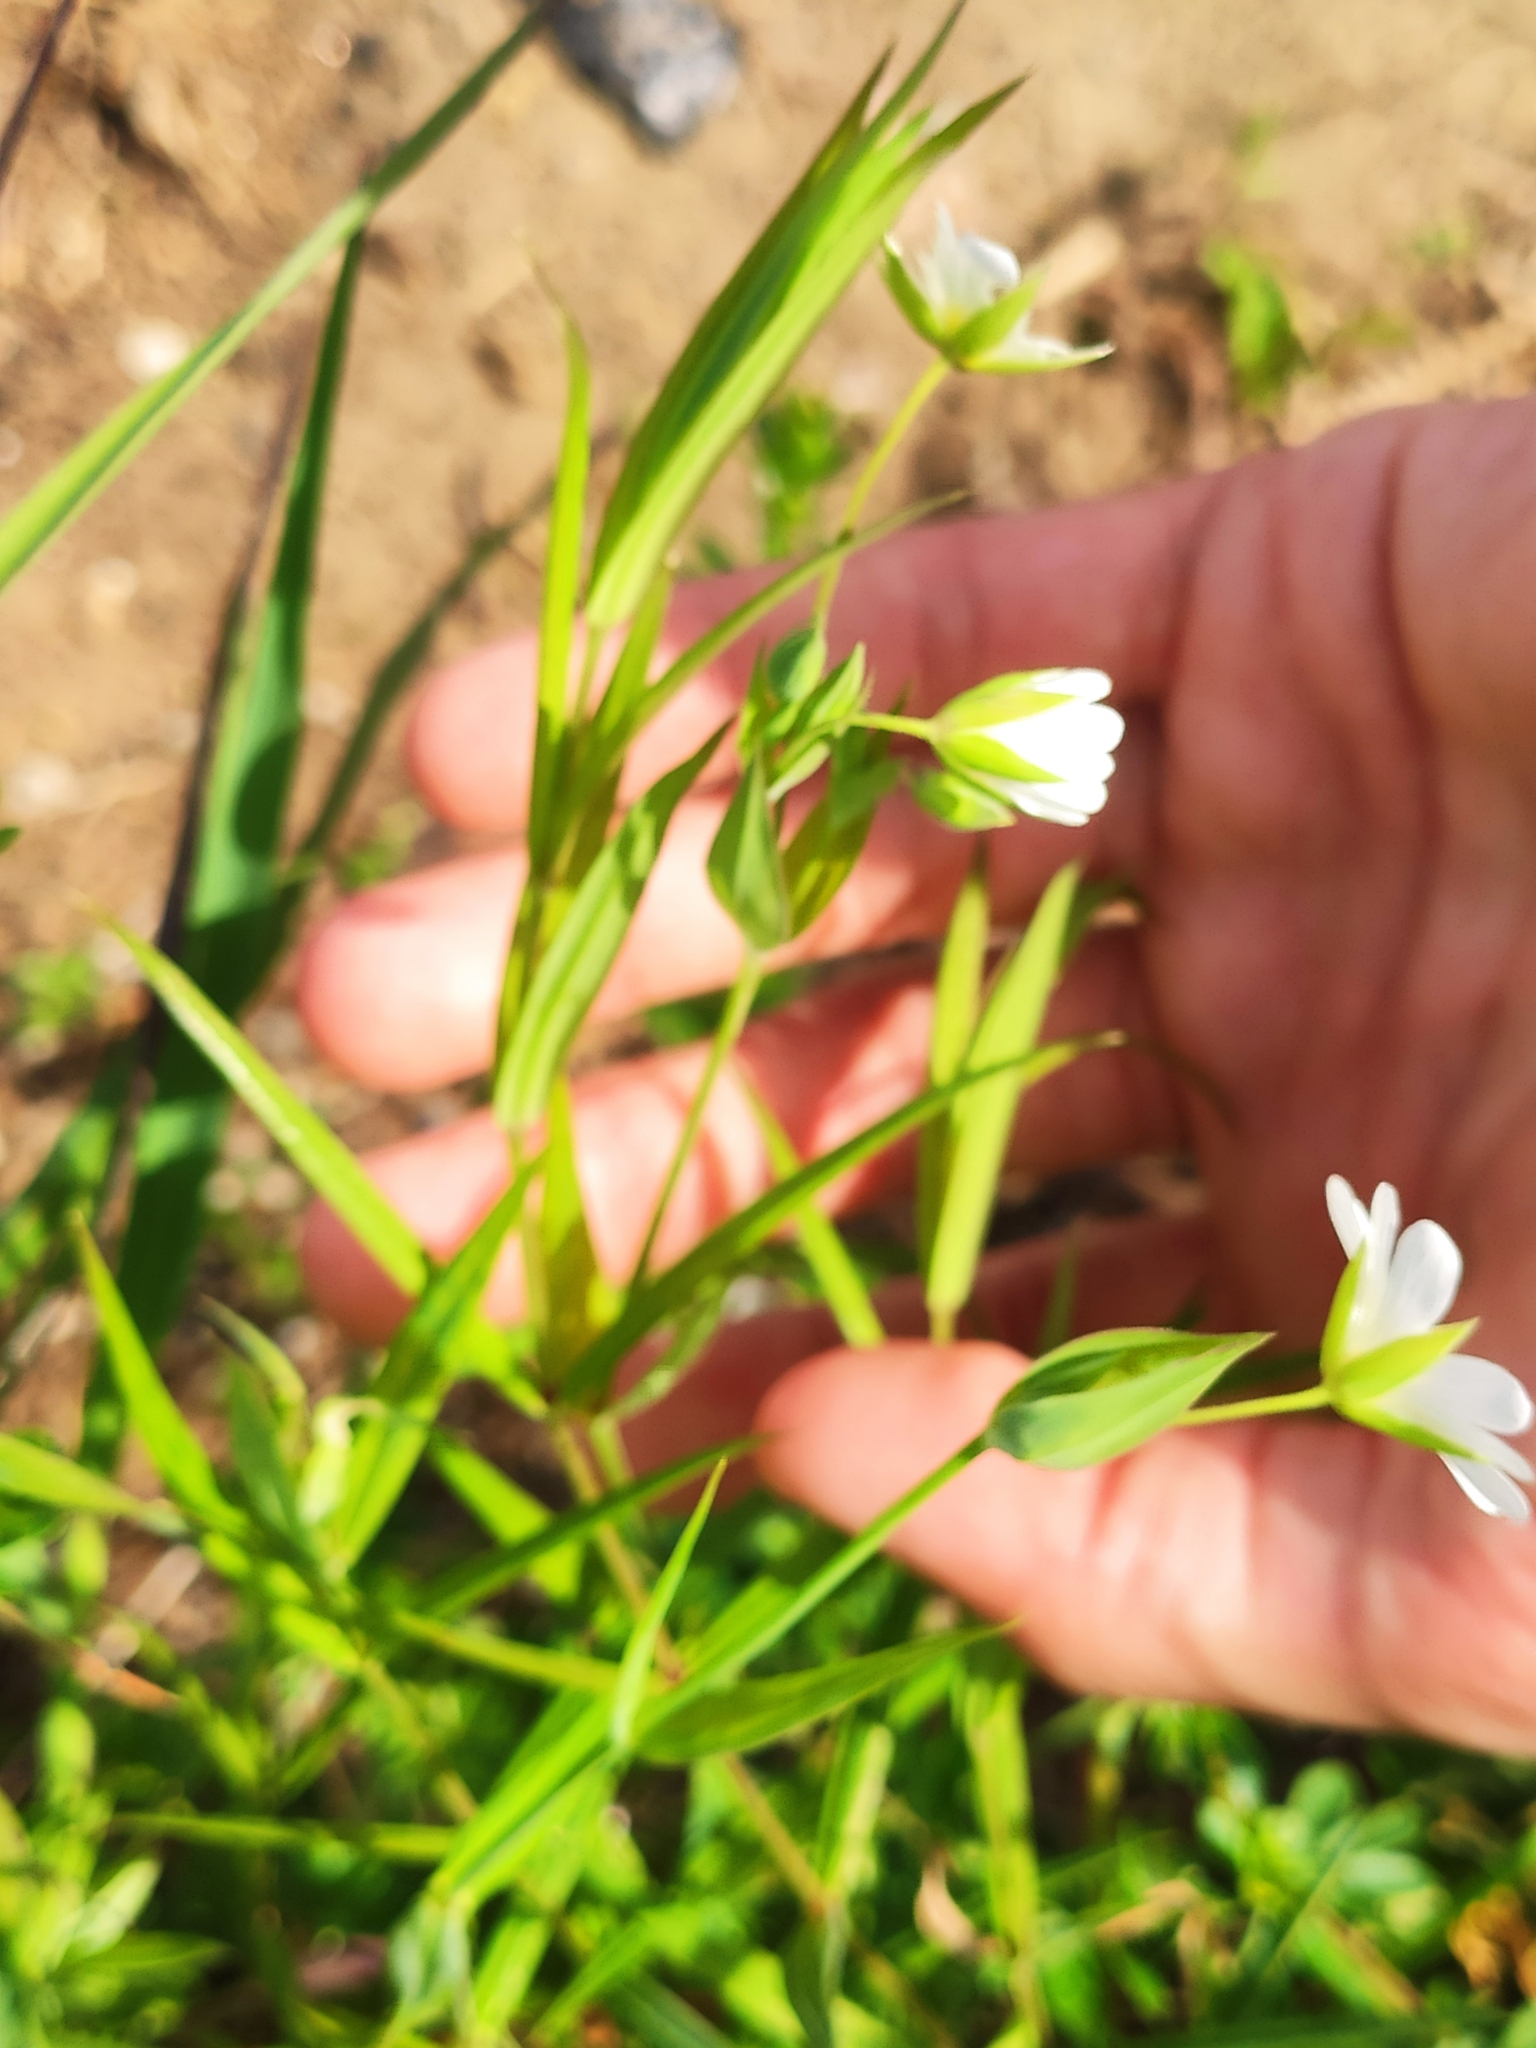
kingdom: Plantae
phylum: Tracheophyta
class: Magnoliopsida
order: Caryophyllales
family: Caryophyllaceae
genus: Rabelera
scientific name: Rabelera holostea
